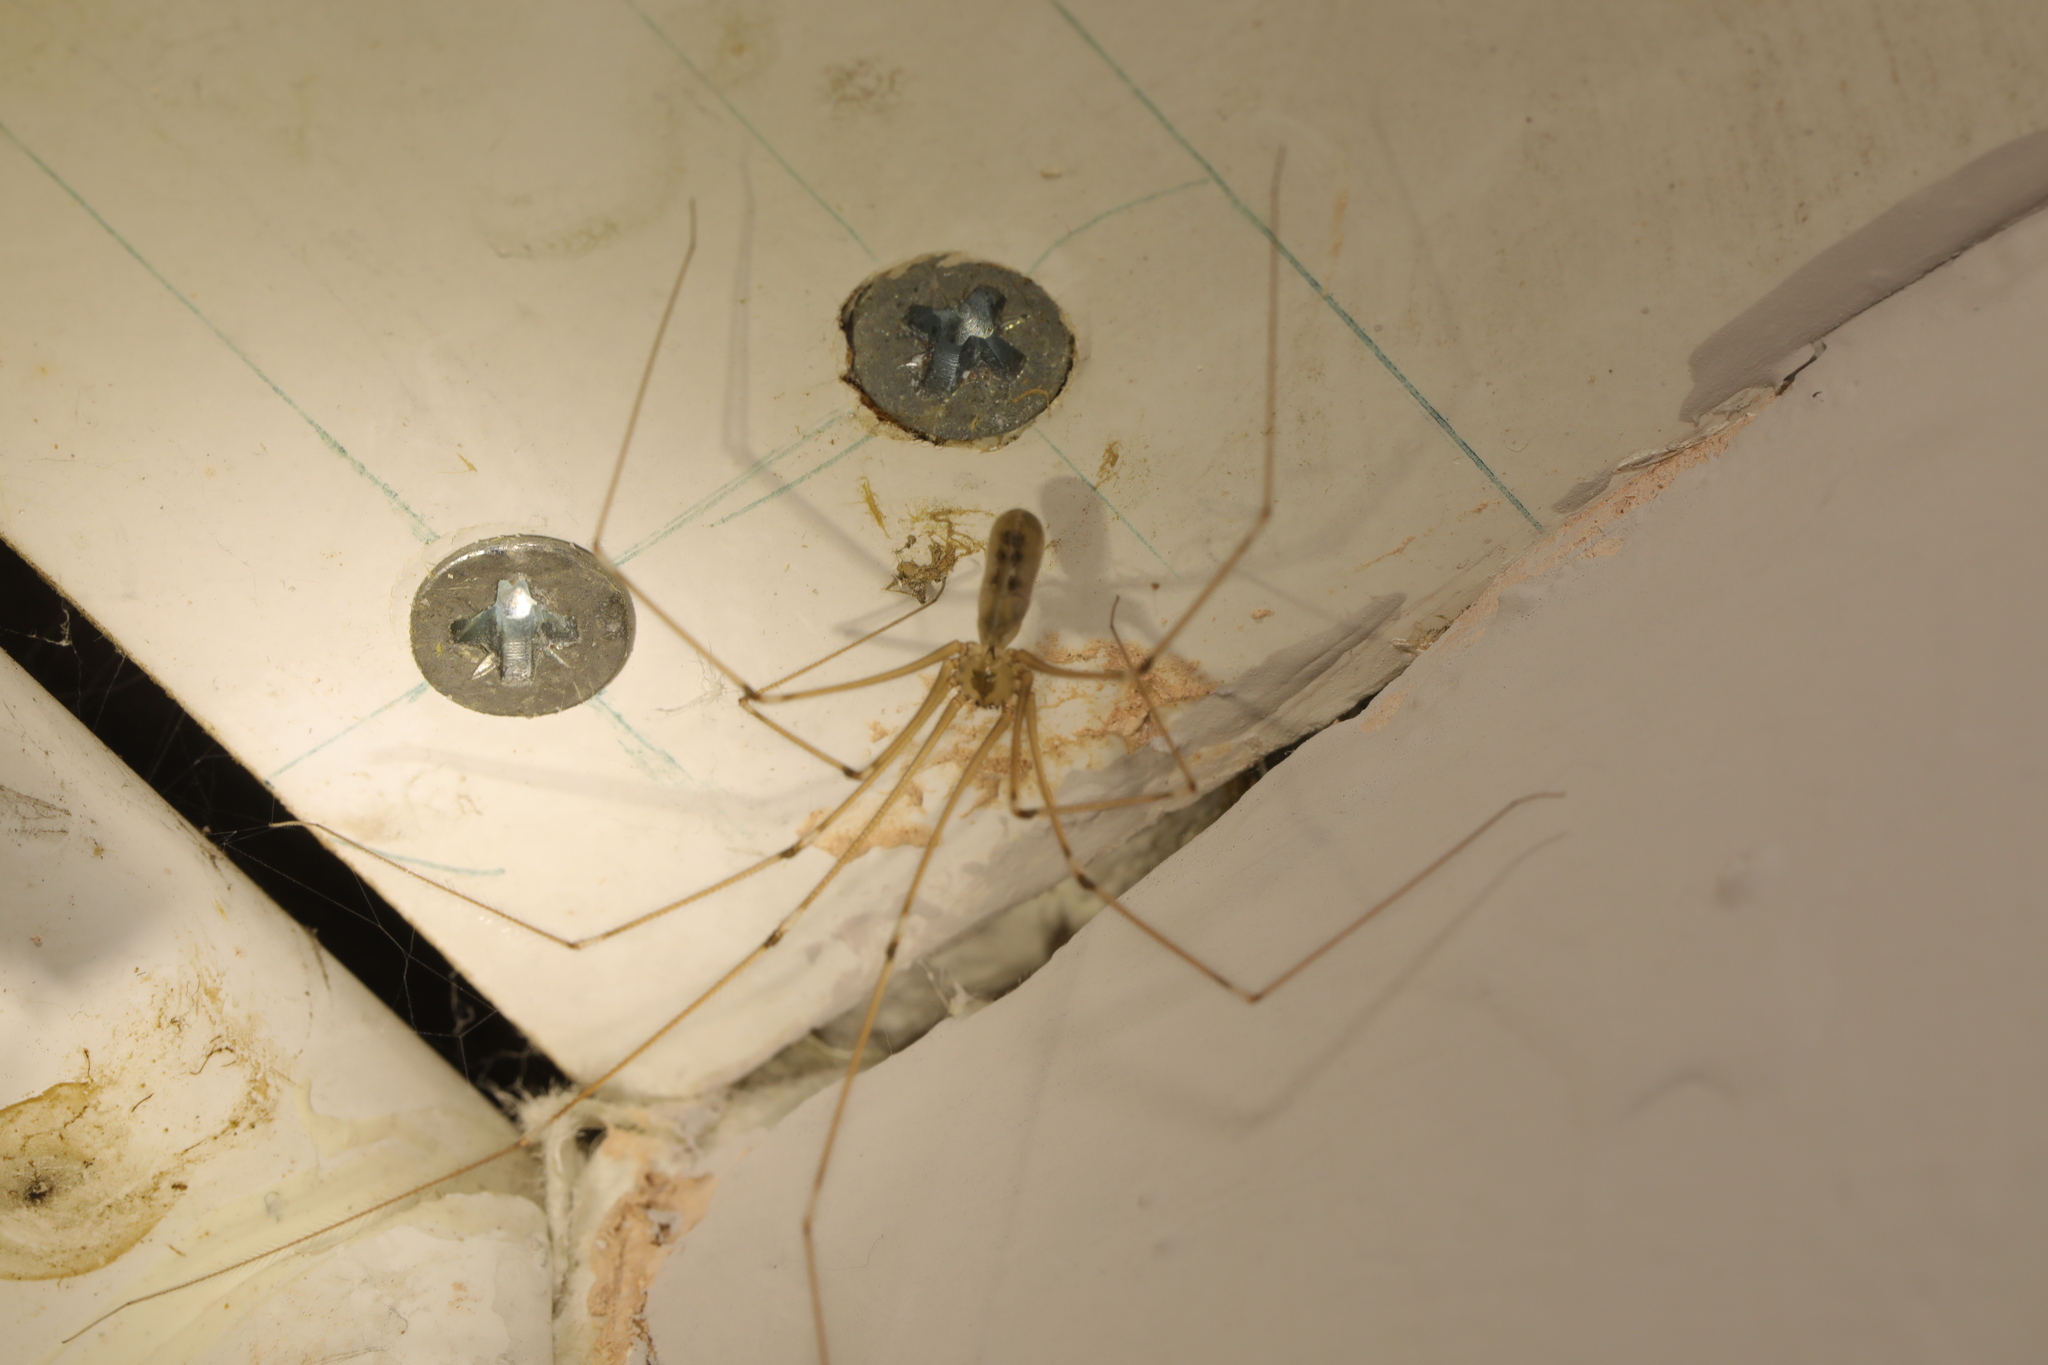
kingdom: Animalia
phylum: Arthropoda
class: Arachnida
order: Araneae
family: Pholcidae
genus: Pholcus
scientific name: Pholcus phalangioides
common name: Longbodied cellar spider
